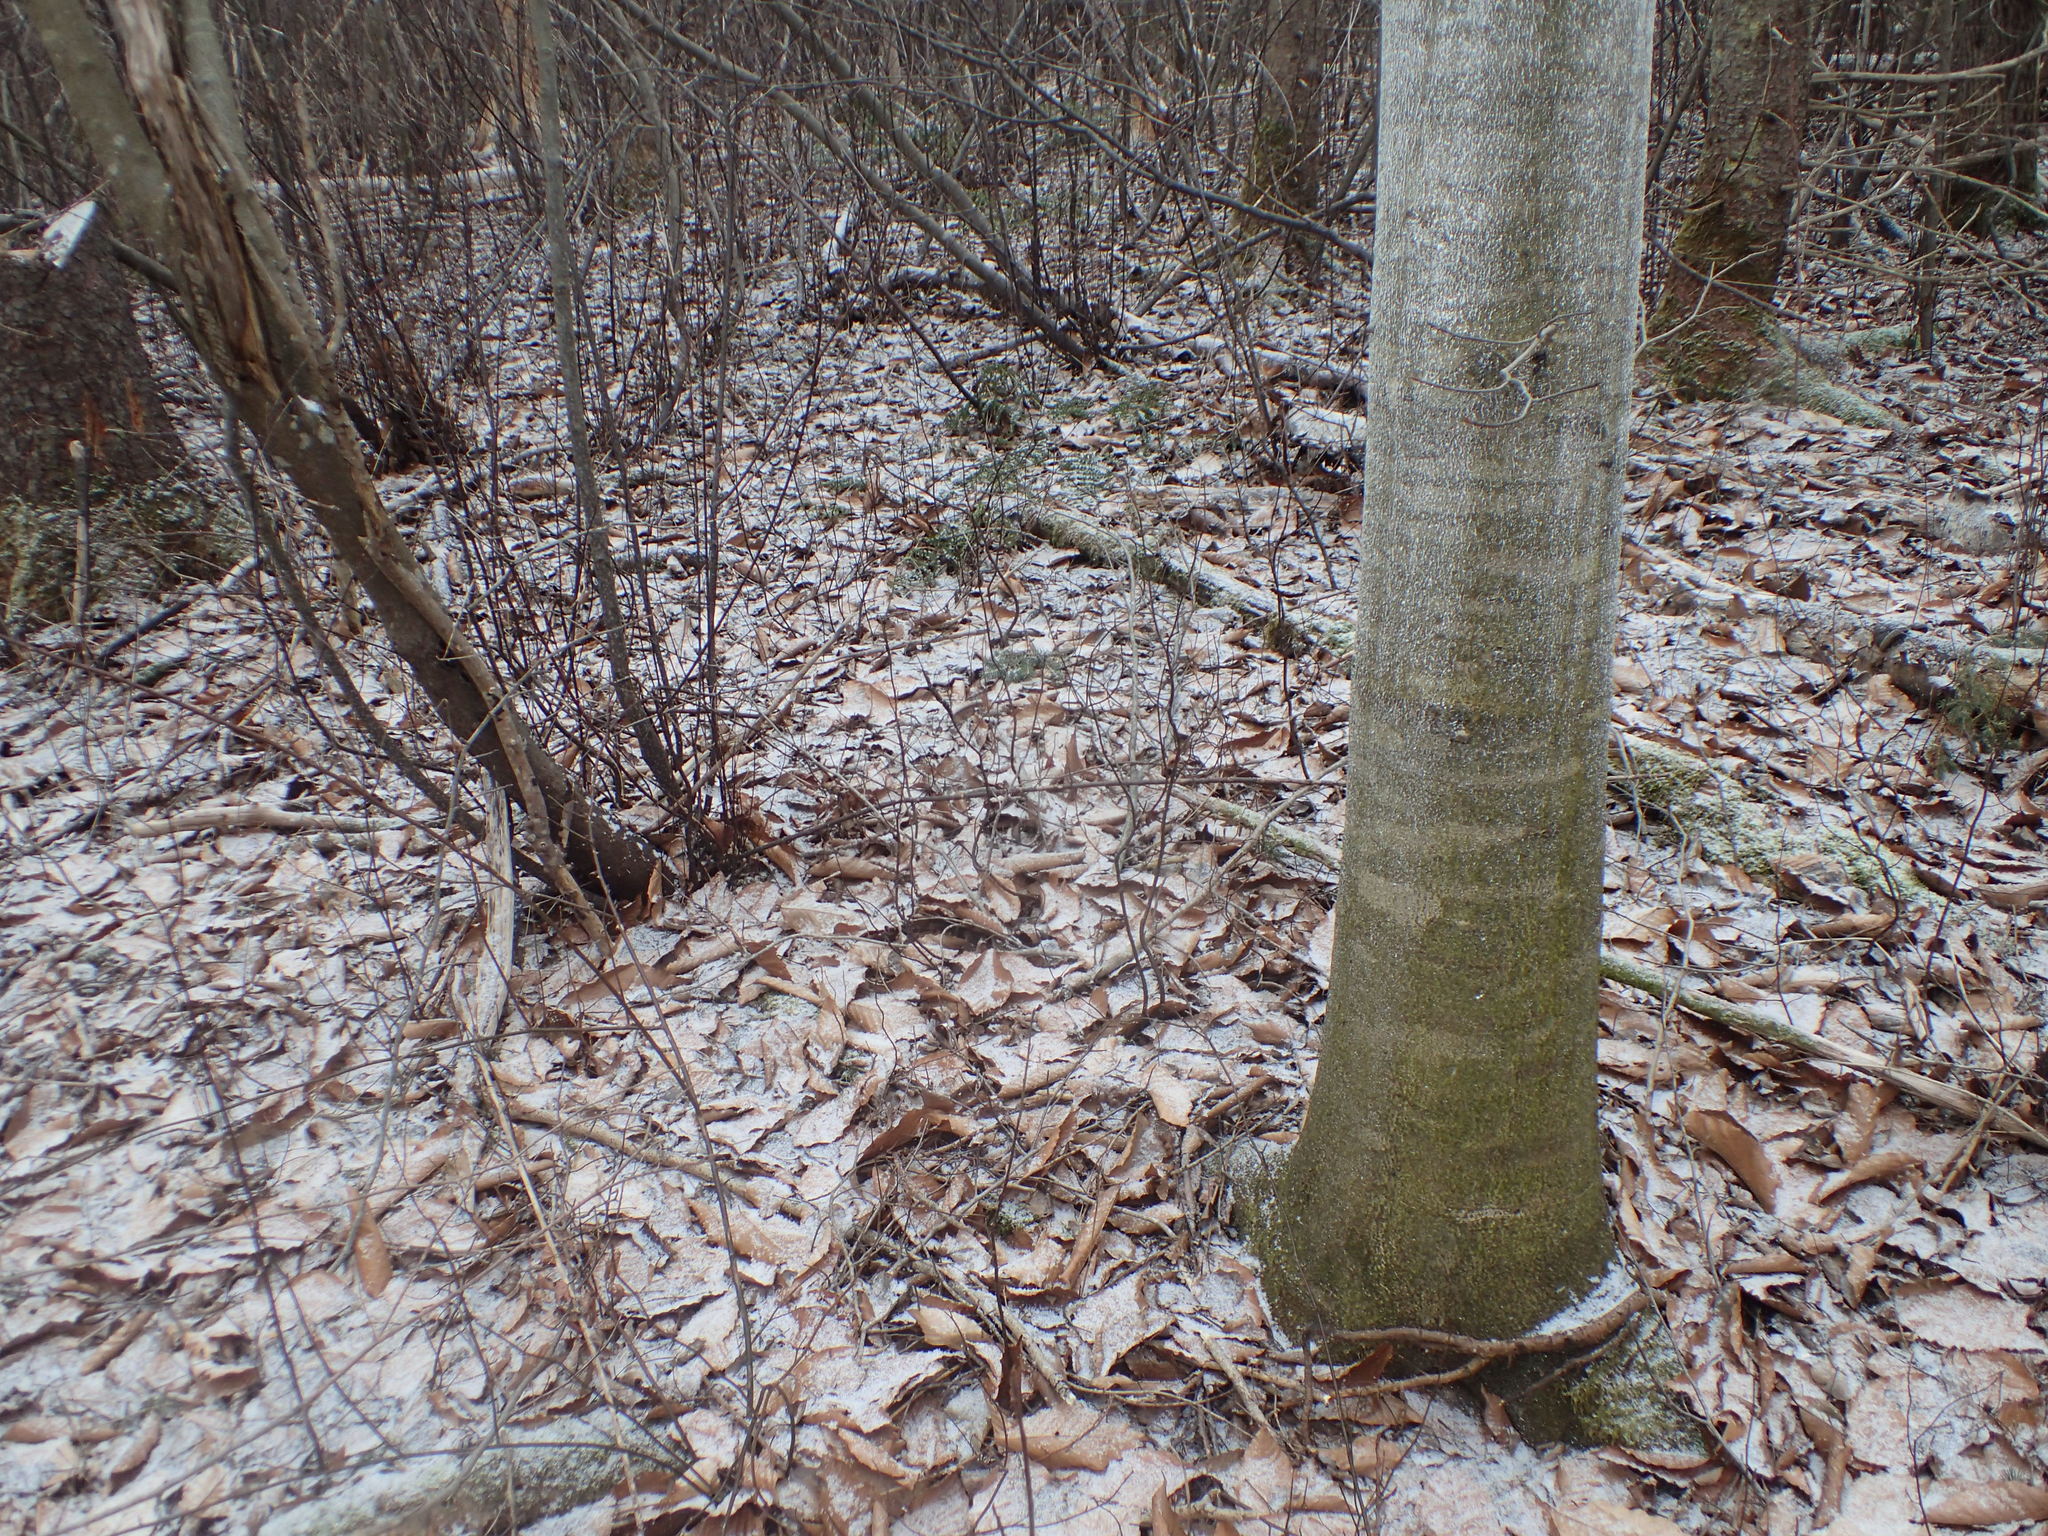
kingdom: Animalia
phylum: Arthropoda
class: Insecta
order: Hemiptera
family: Eriococcidae
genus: Cryptococcus
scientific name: Cryptococcus fagisuga
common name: Beech scale
